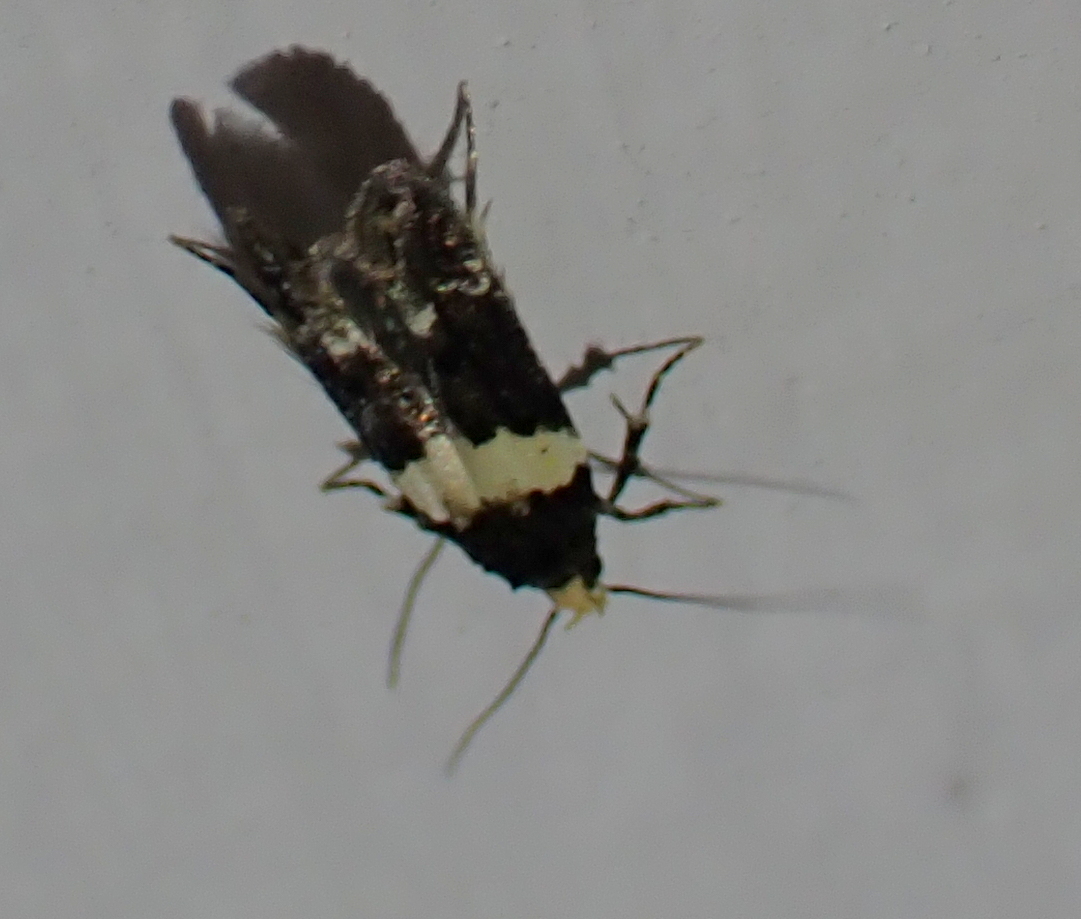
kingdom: Animalia
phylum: Arthropoda
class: Insecta
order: Lepidoptera
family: Gelechiidae
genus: Recurvaria
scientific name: Recurvaria leucatella
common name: White-barred groundling
